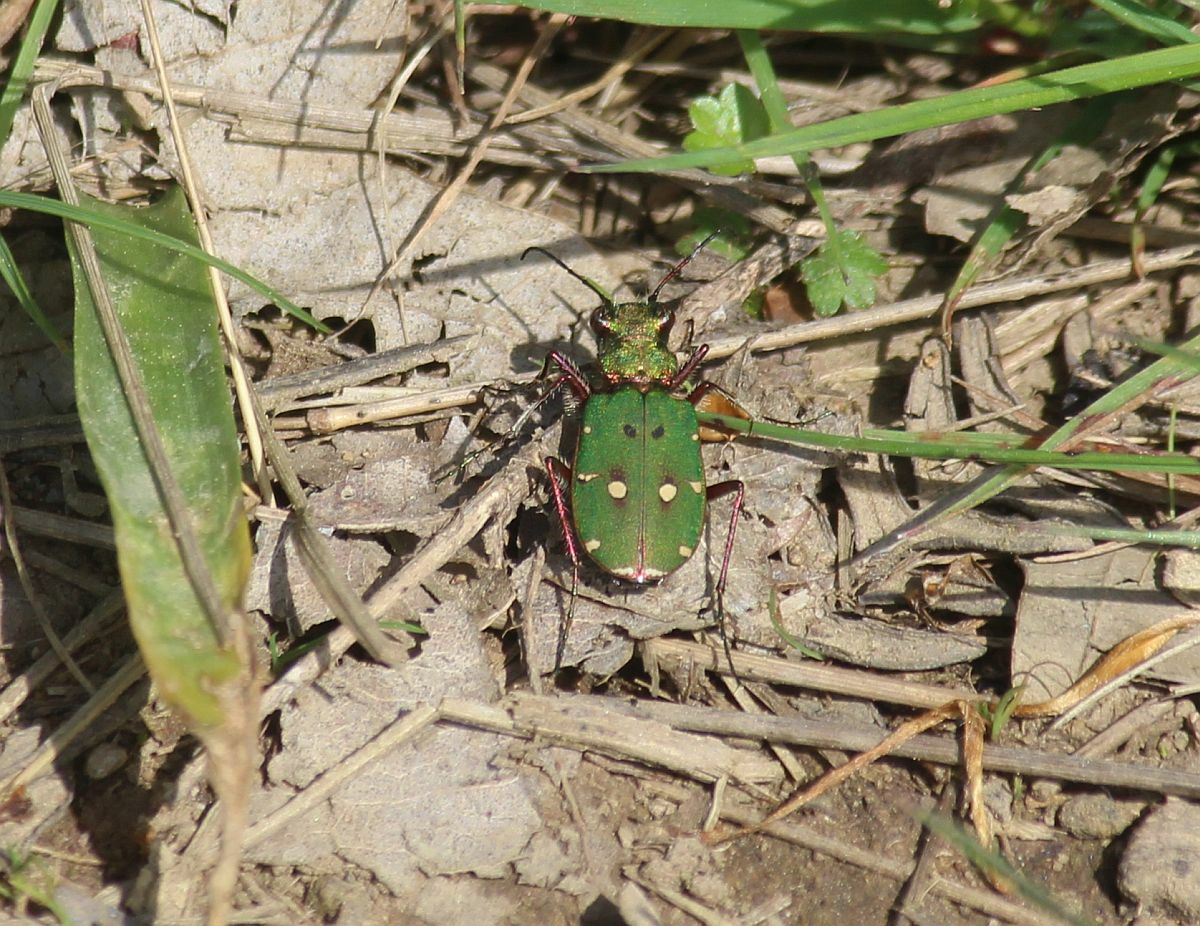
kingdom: Animalia
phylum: Arthropoda
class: Insecta
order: Coleoptera
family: Carabidae
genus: Cicindela
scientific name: Cicindela campestris
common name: Common tiger beetle
